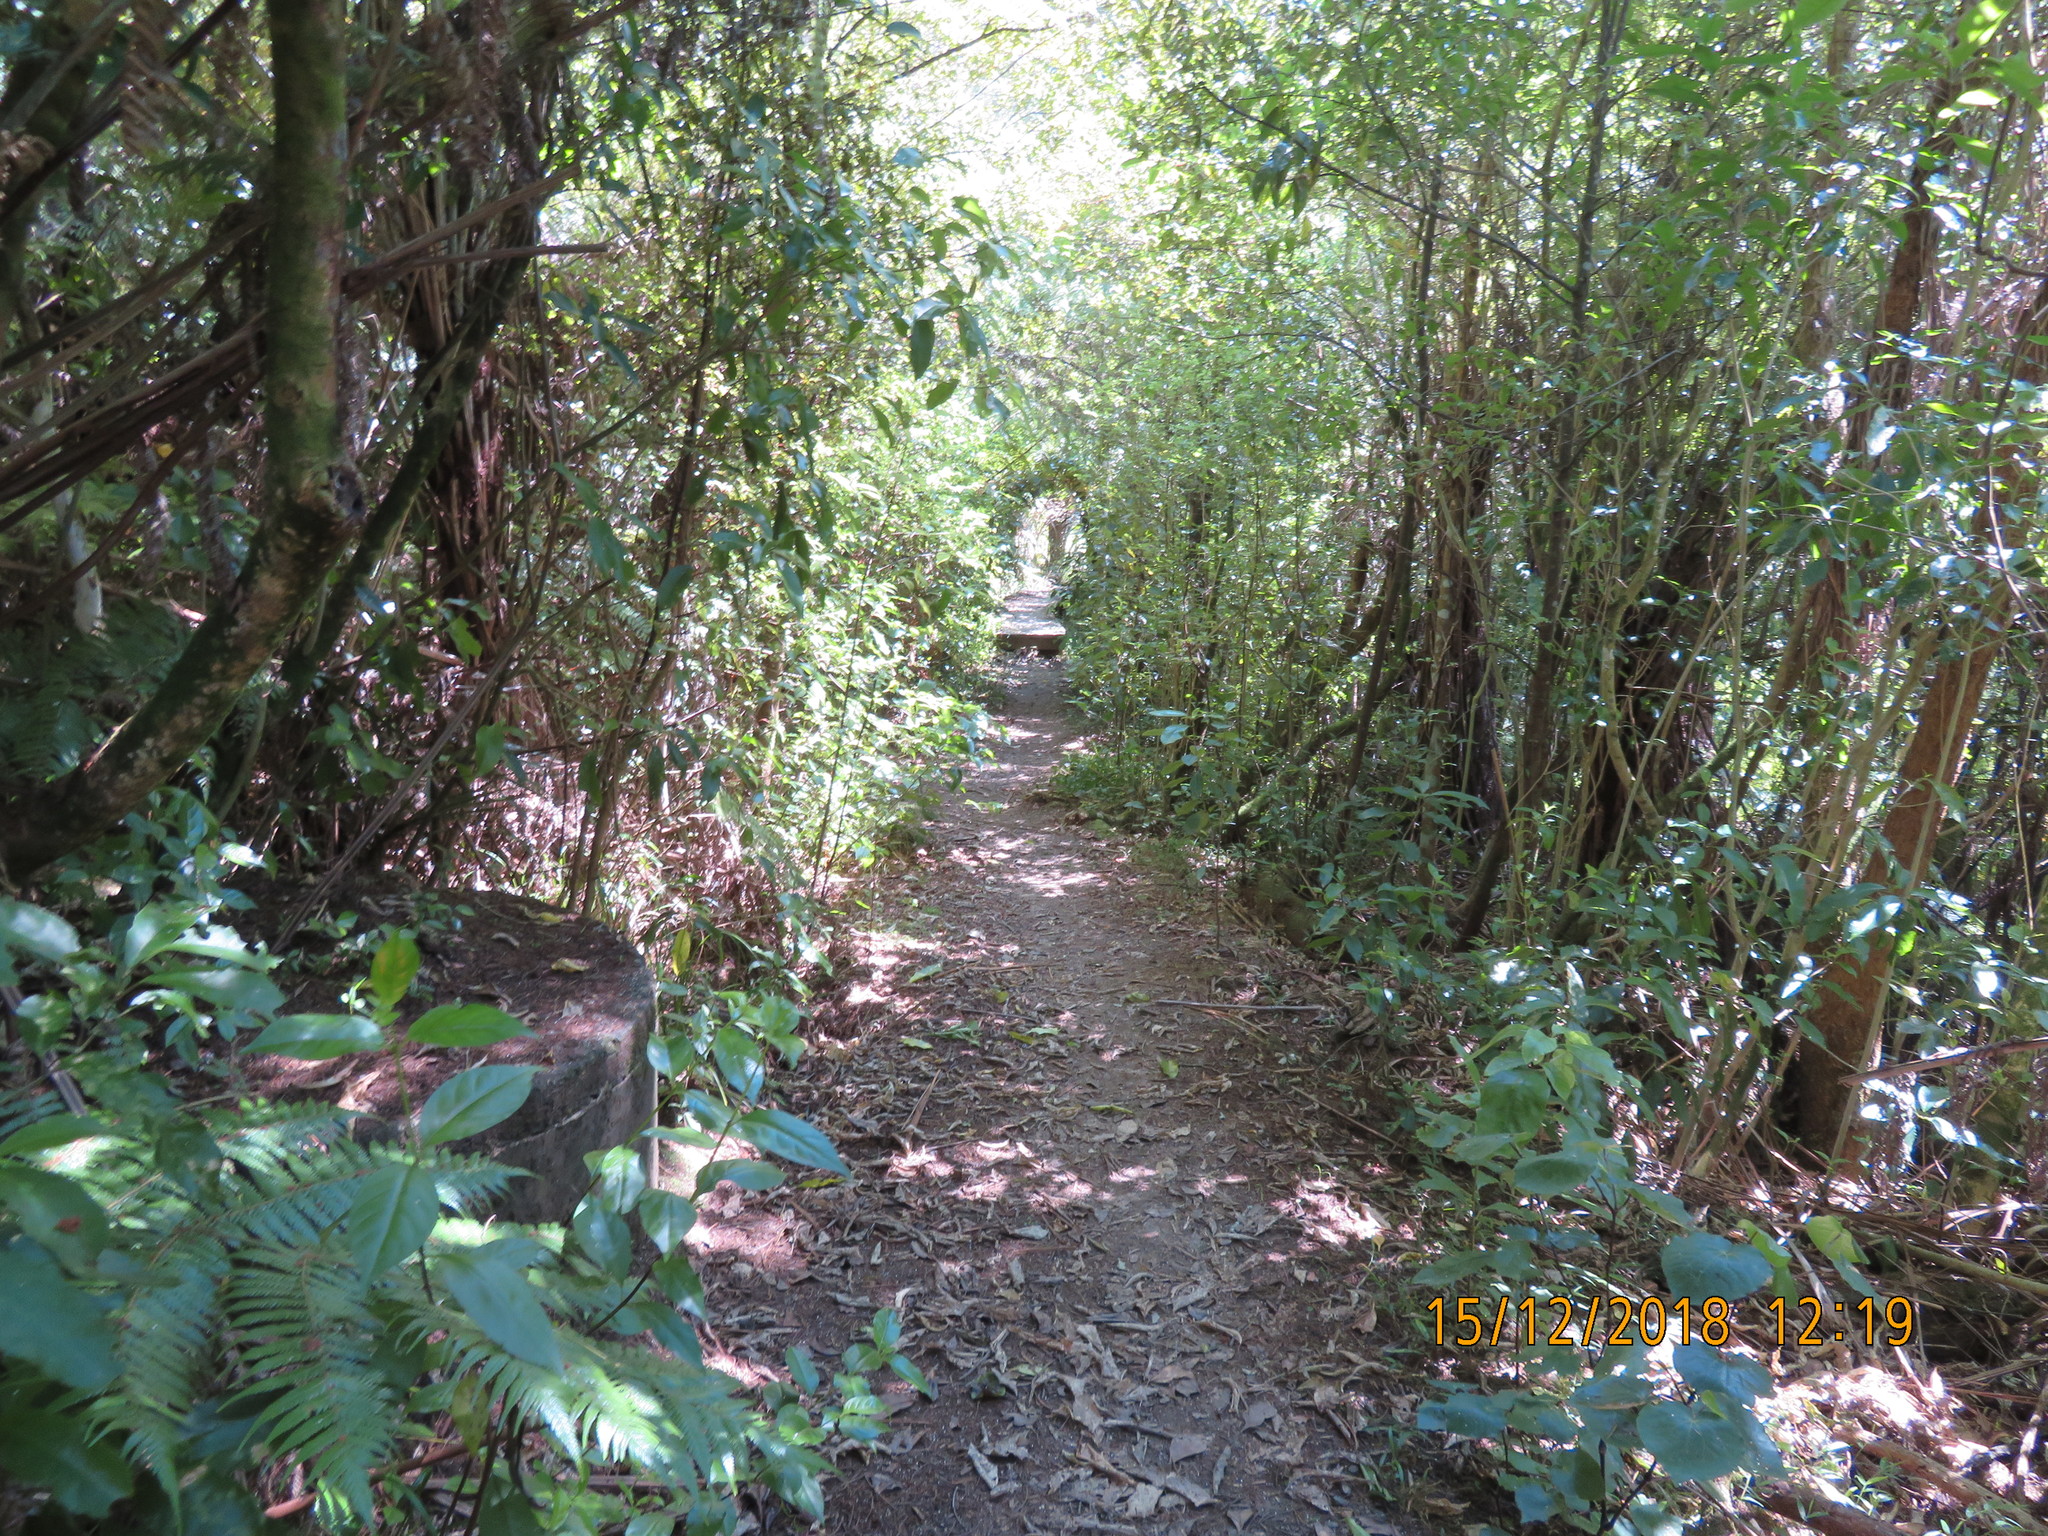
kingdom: Plantae
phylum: Tracheophyta
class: Magnoliopsida
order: Malpighiales
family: Violaceae
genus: Melicytus
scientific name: Melicytus ramiflorus
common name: Mahoe
